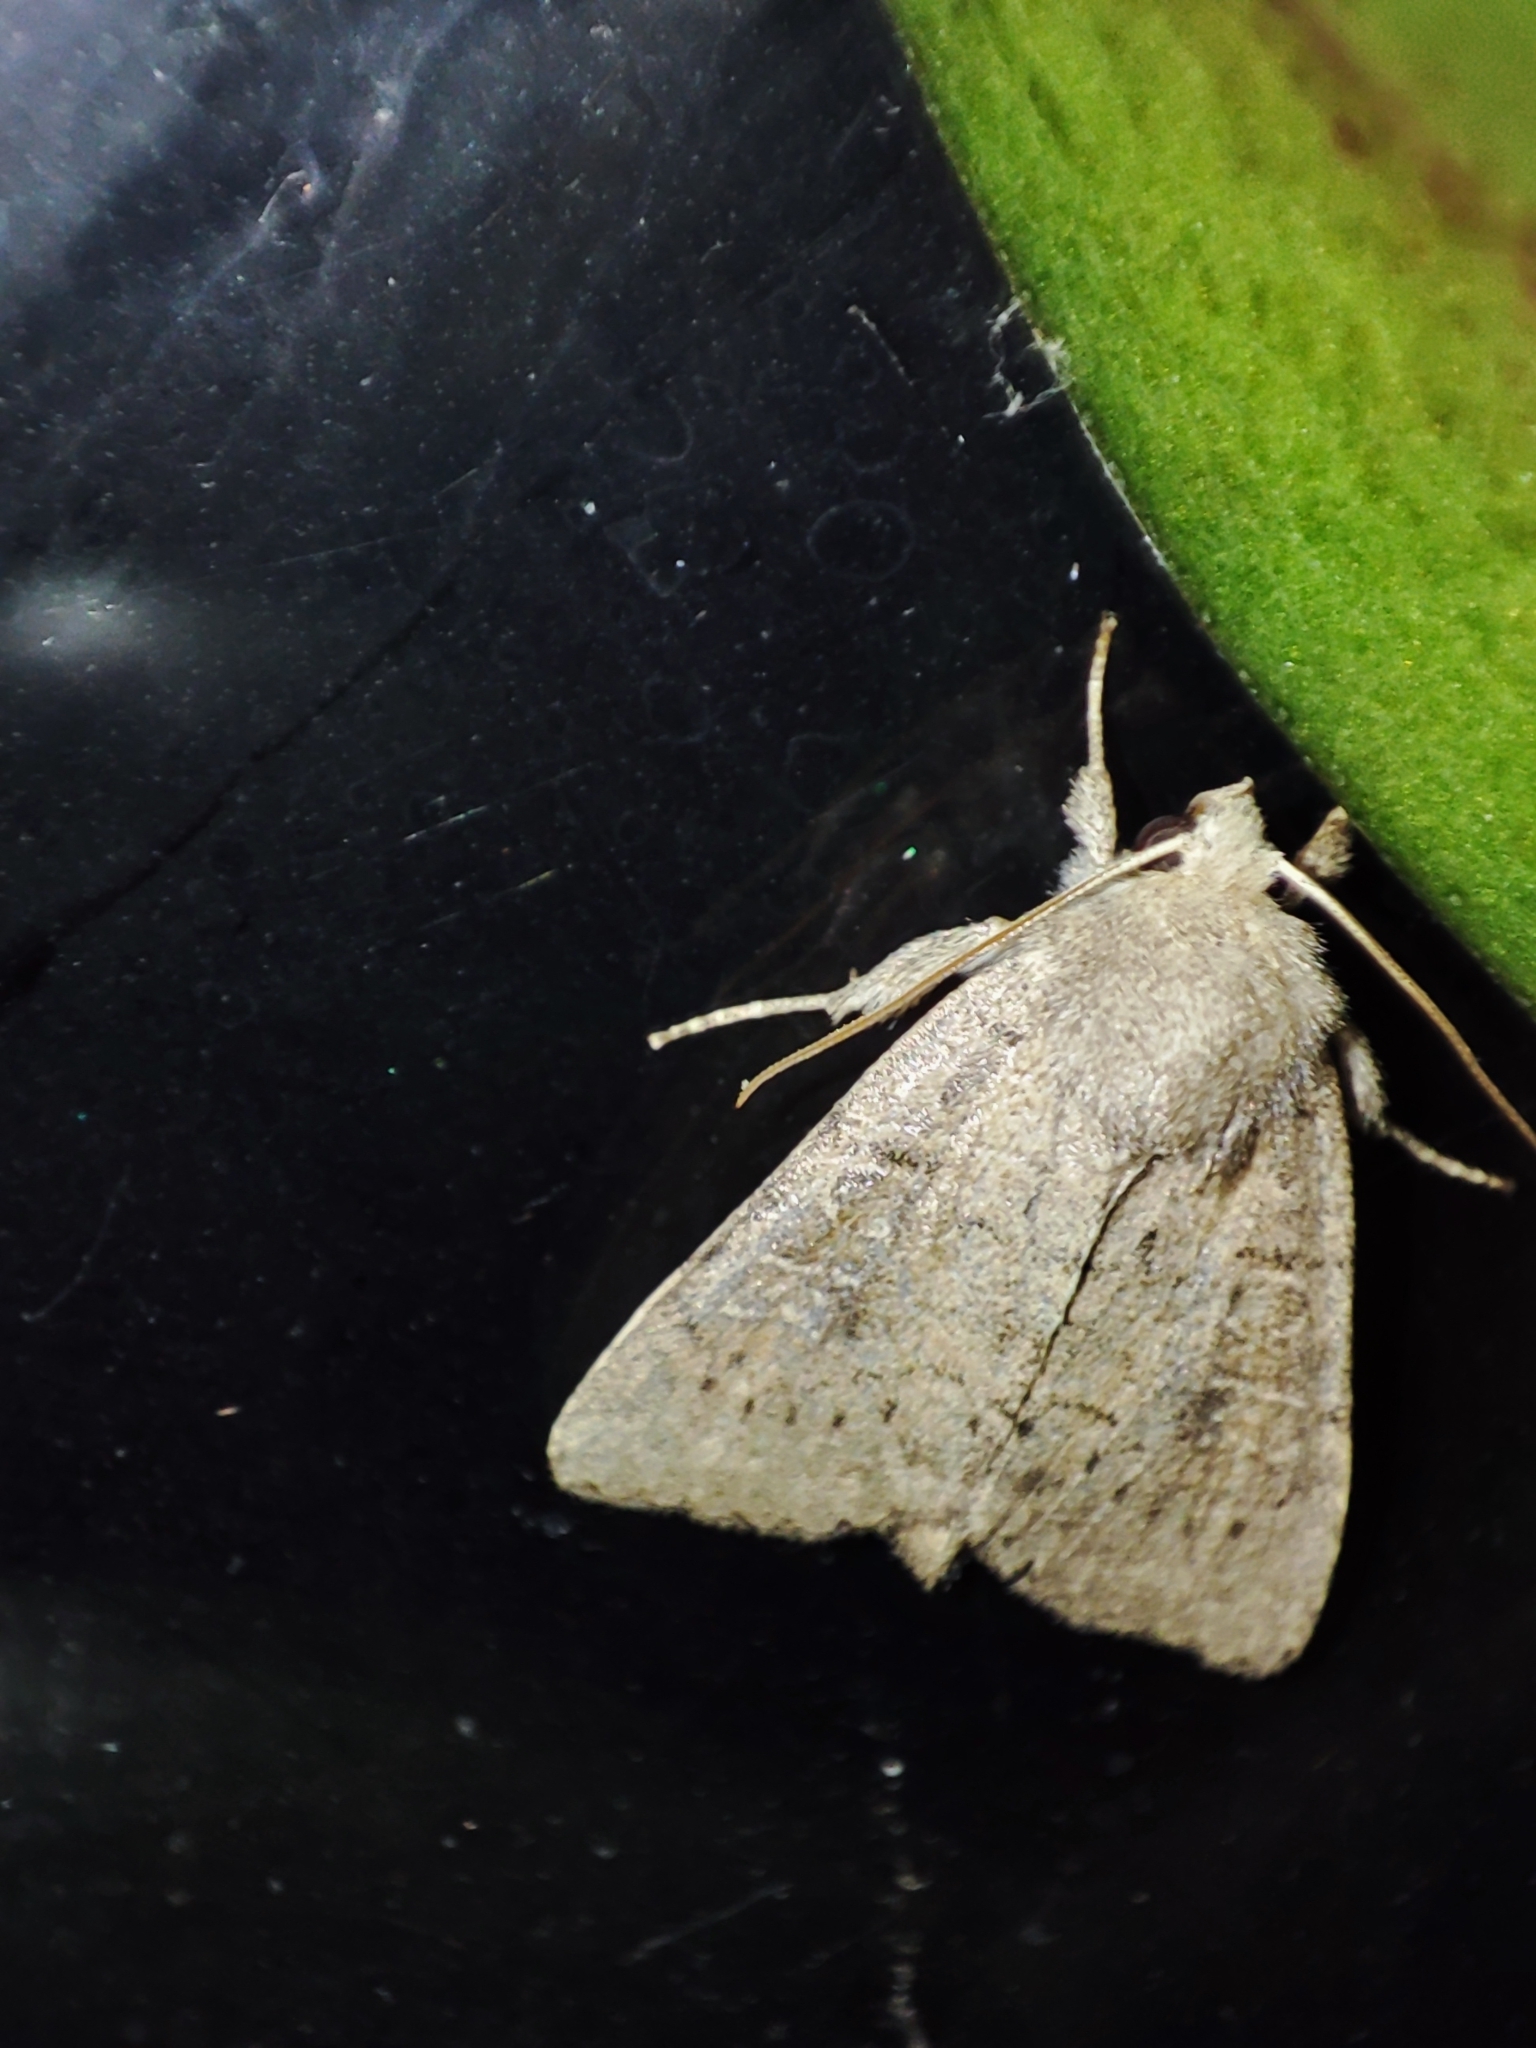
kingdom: Animalia
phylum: Arthropoda
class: Insecta
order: Lepidoptera
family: Noctuidae
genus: Parastichtis
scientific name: Parastichtis suspecta
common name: Suspected
